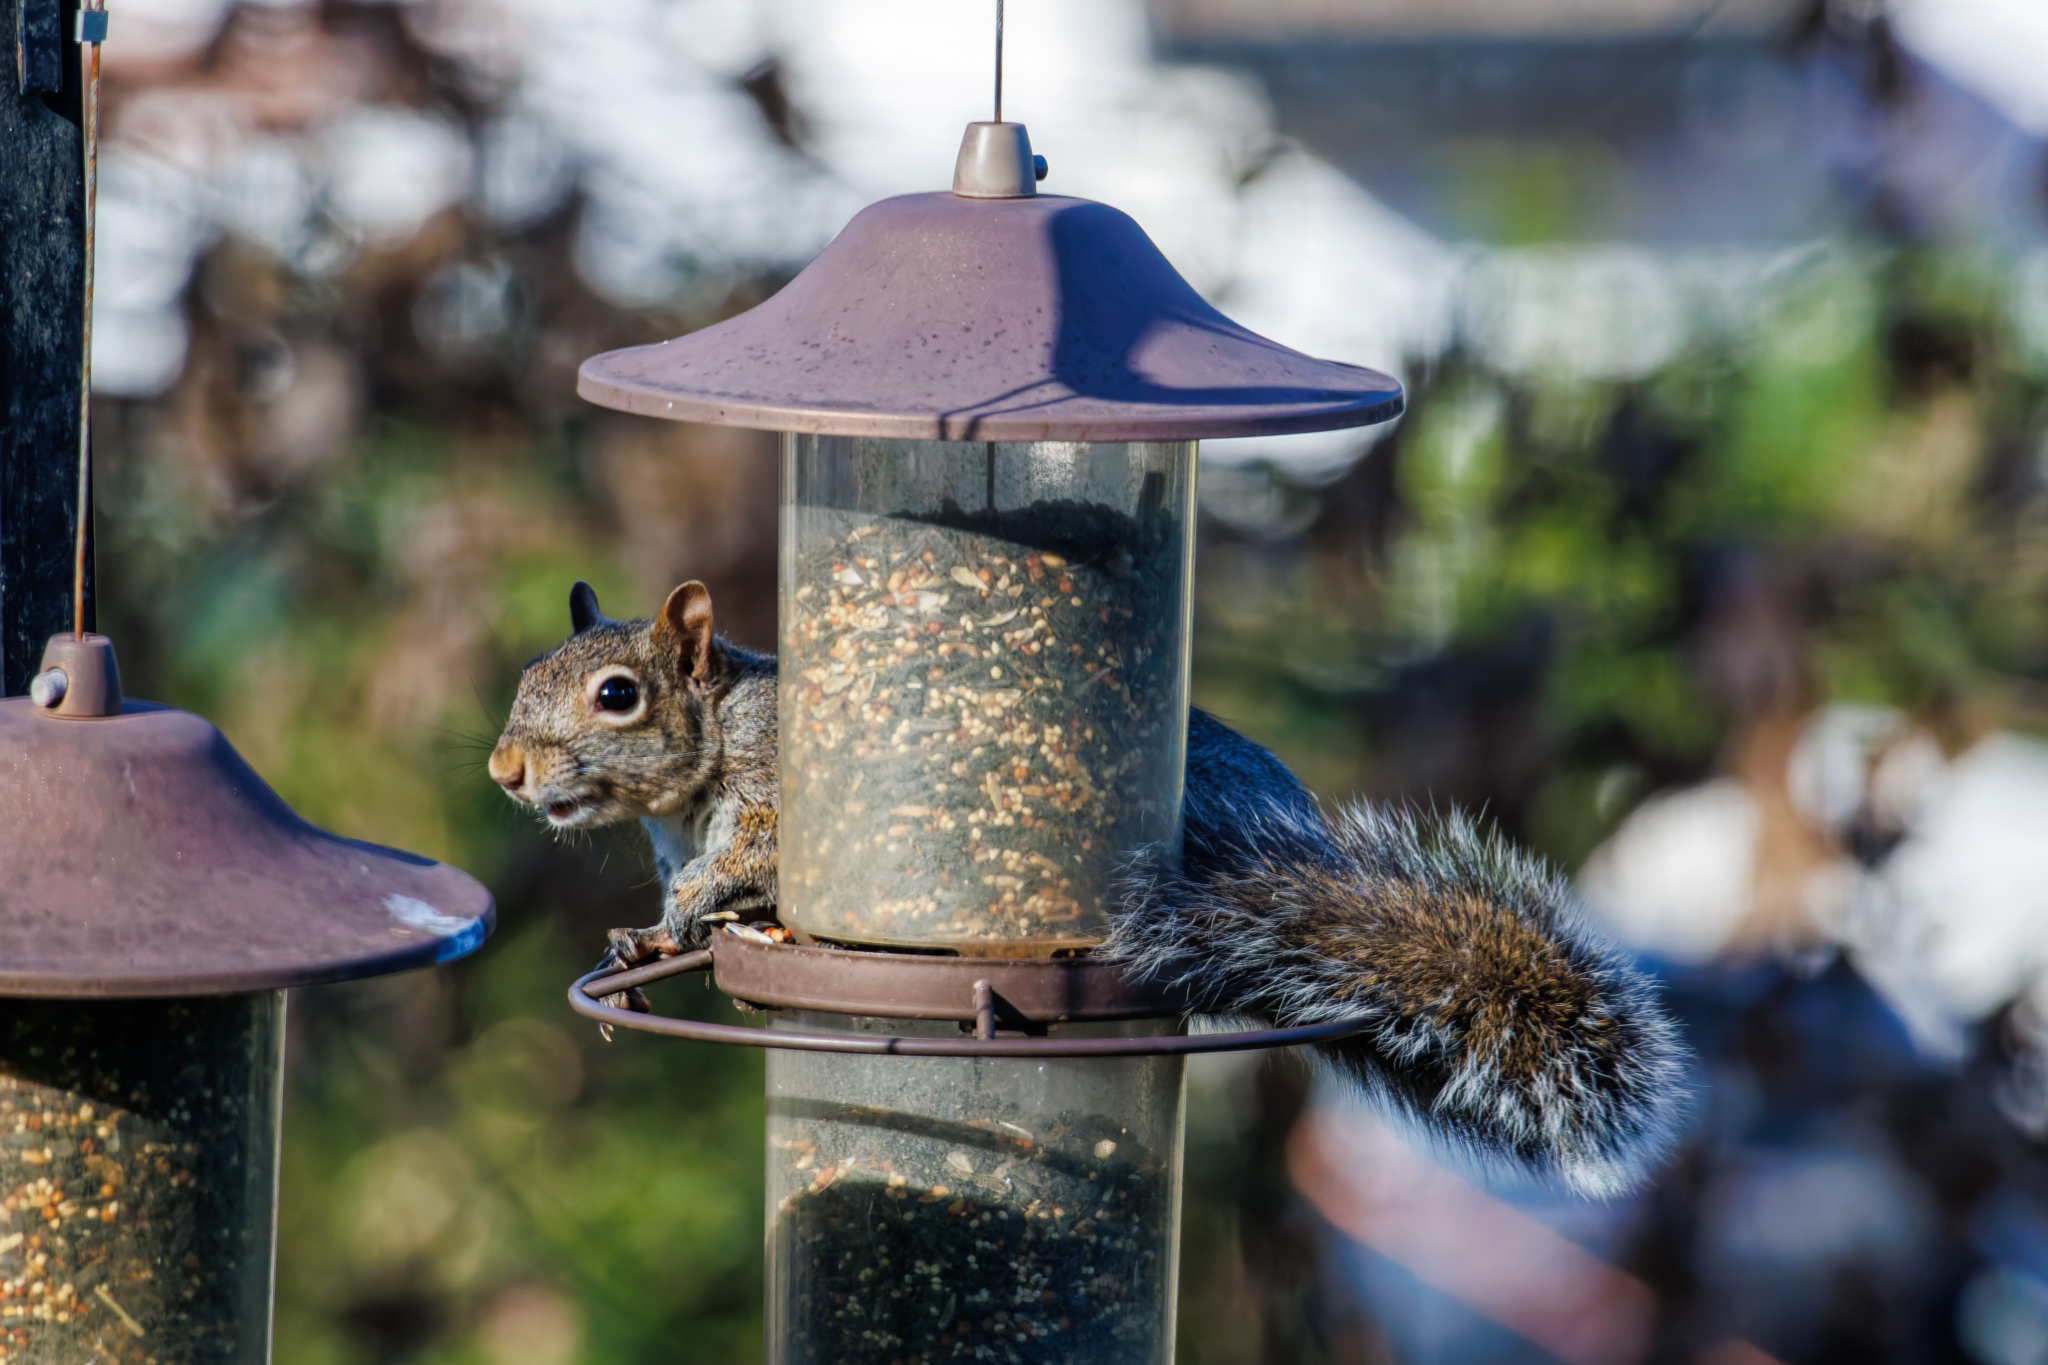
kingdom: Animalia
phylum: Chordata
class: Mammalia
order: Rodentia
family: Sciuridae
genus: Sciurus
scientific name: Sciurus carolinensis
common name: Eastern gray squirrel
